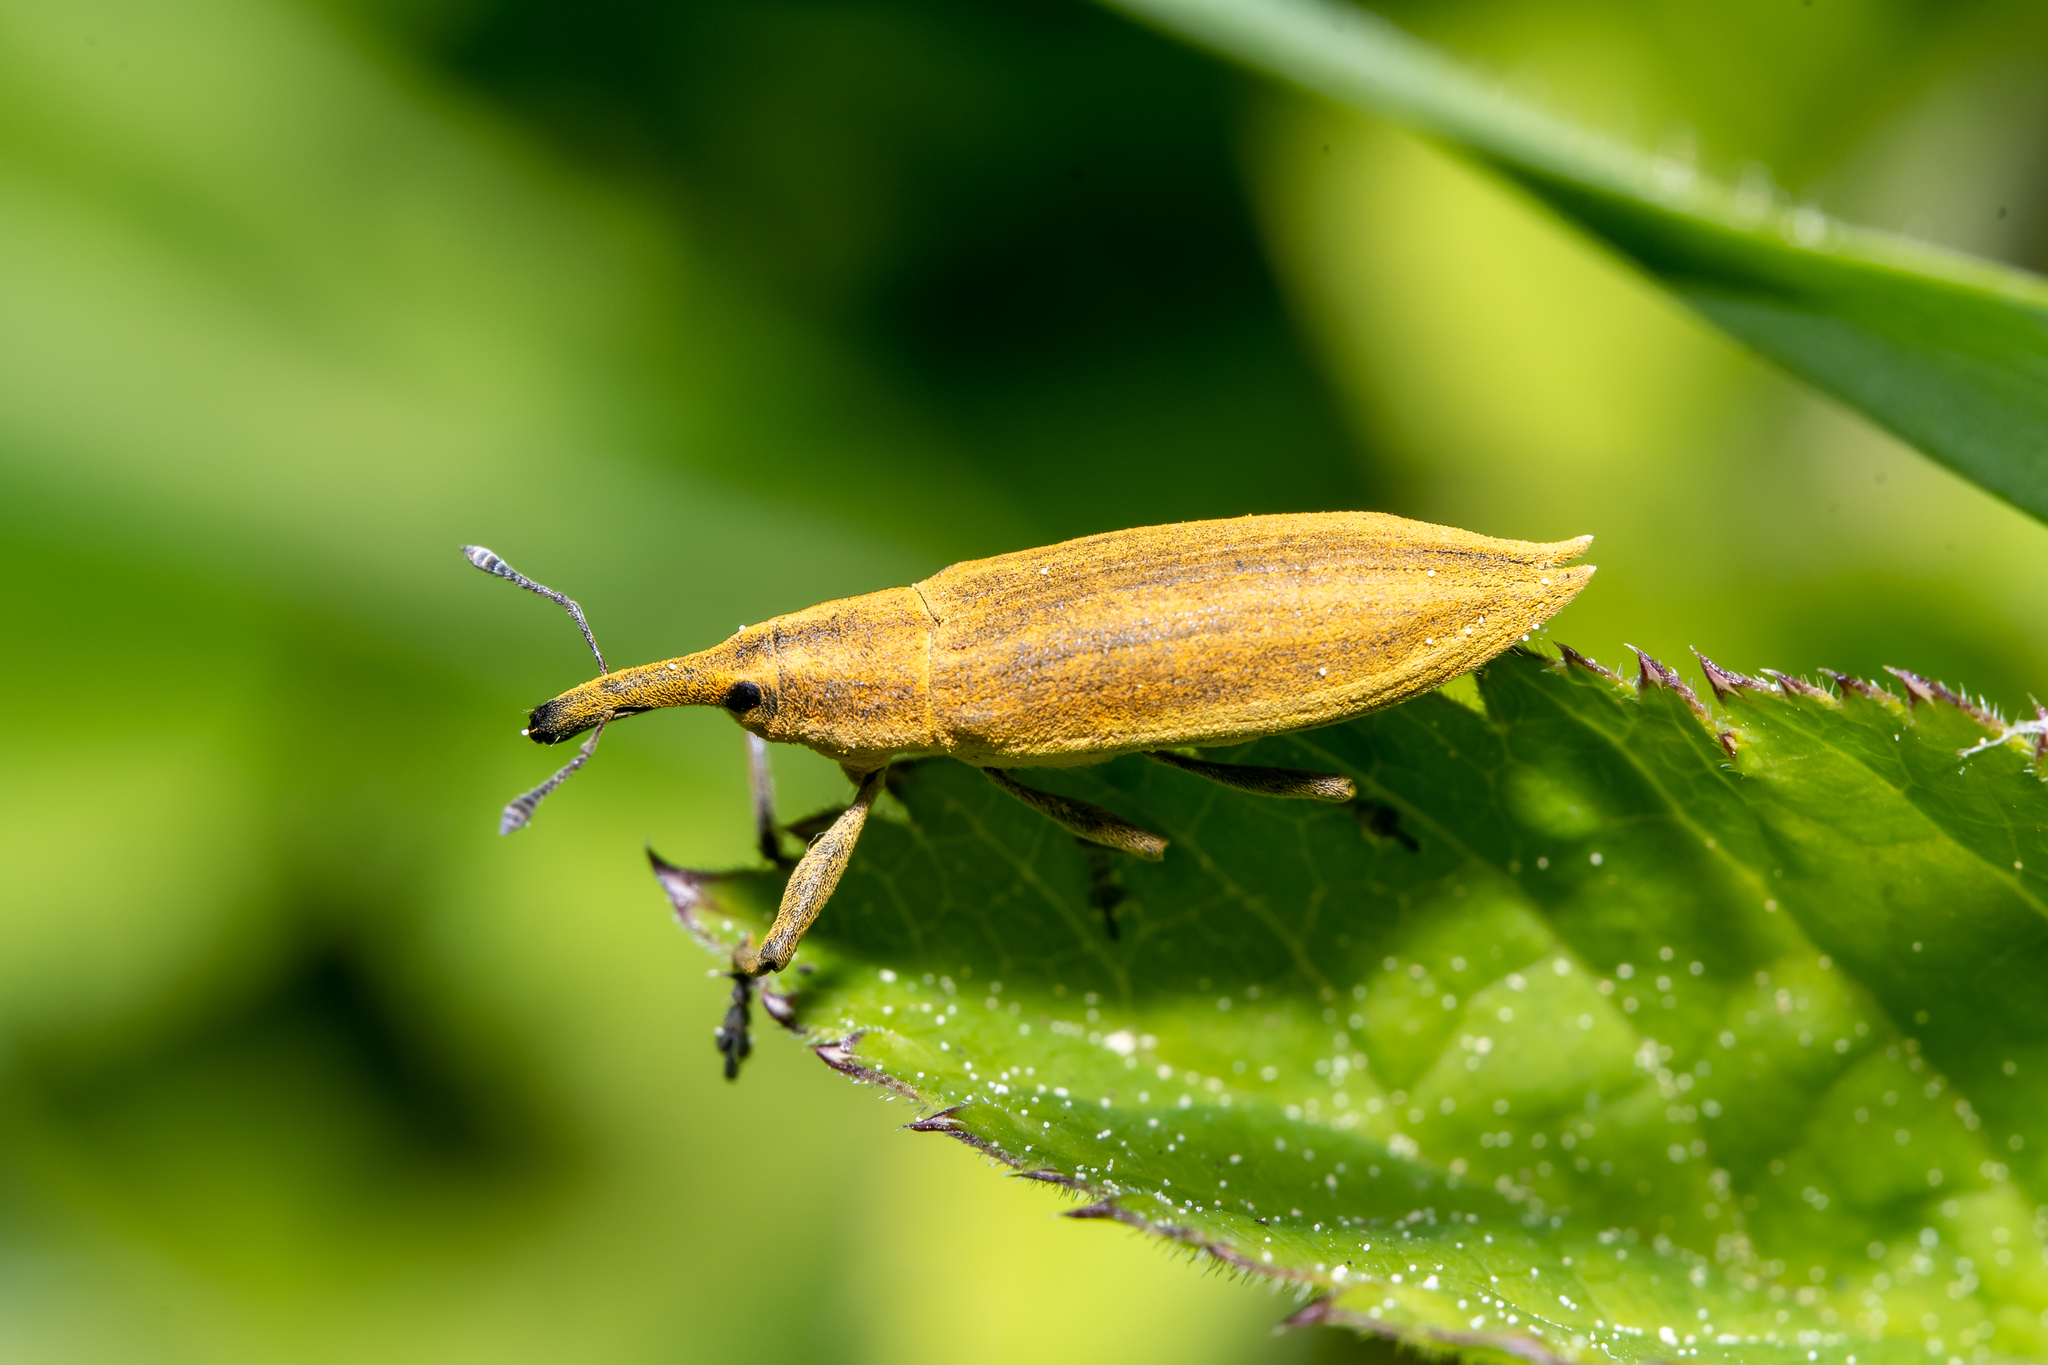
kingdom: Animalia
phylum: Arthropoda
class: Insecta
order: Coleoptera
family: Curculionidae
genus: Lixus
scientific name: Lixus iridis
